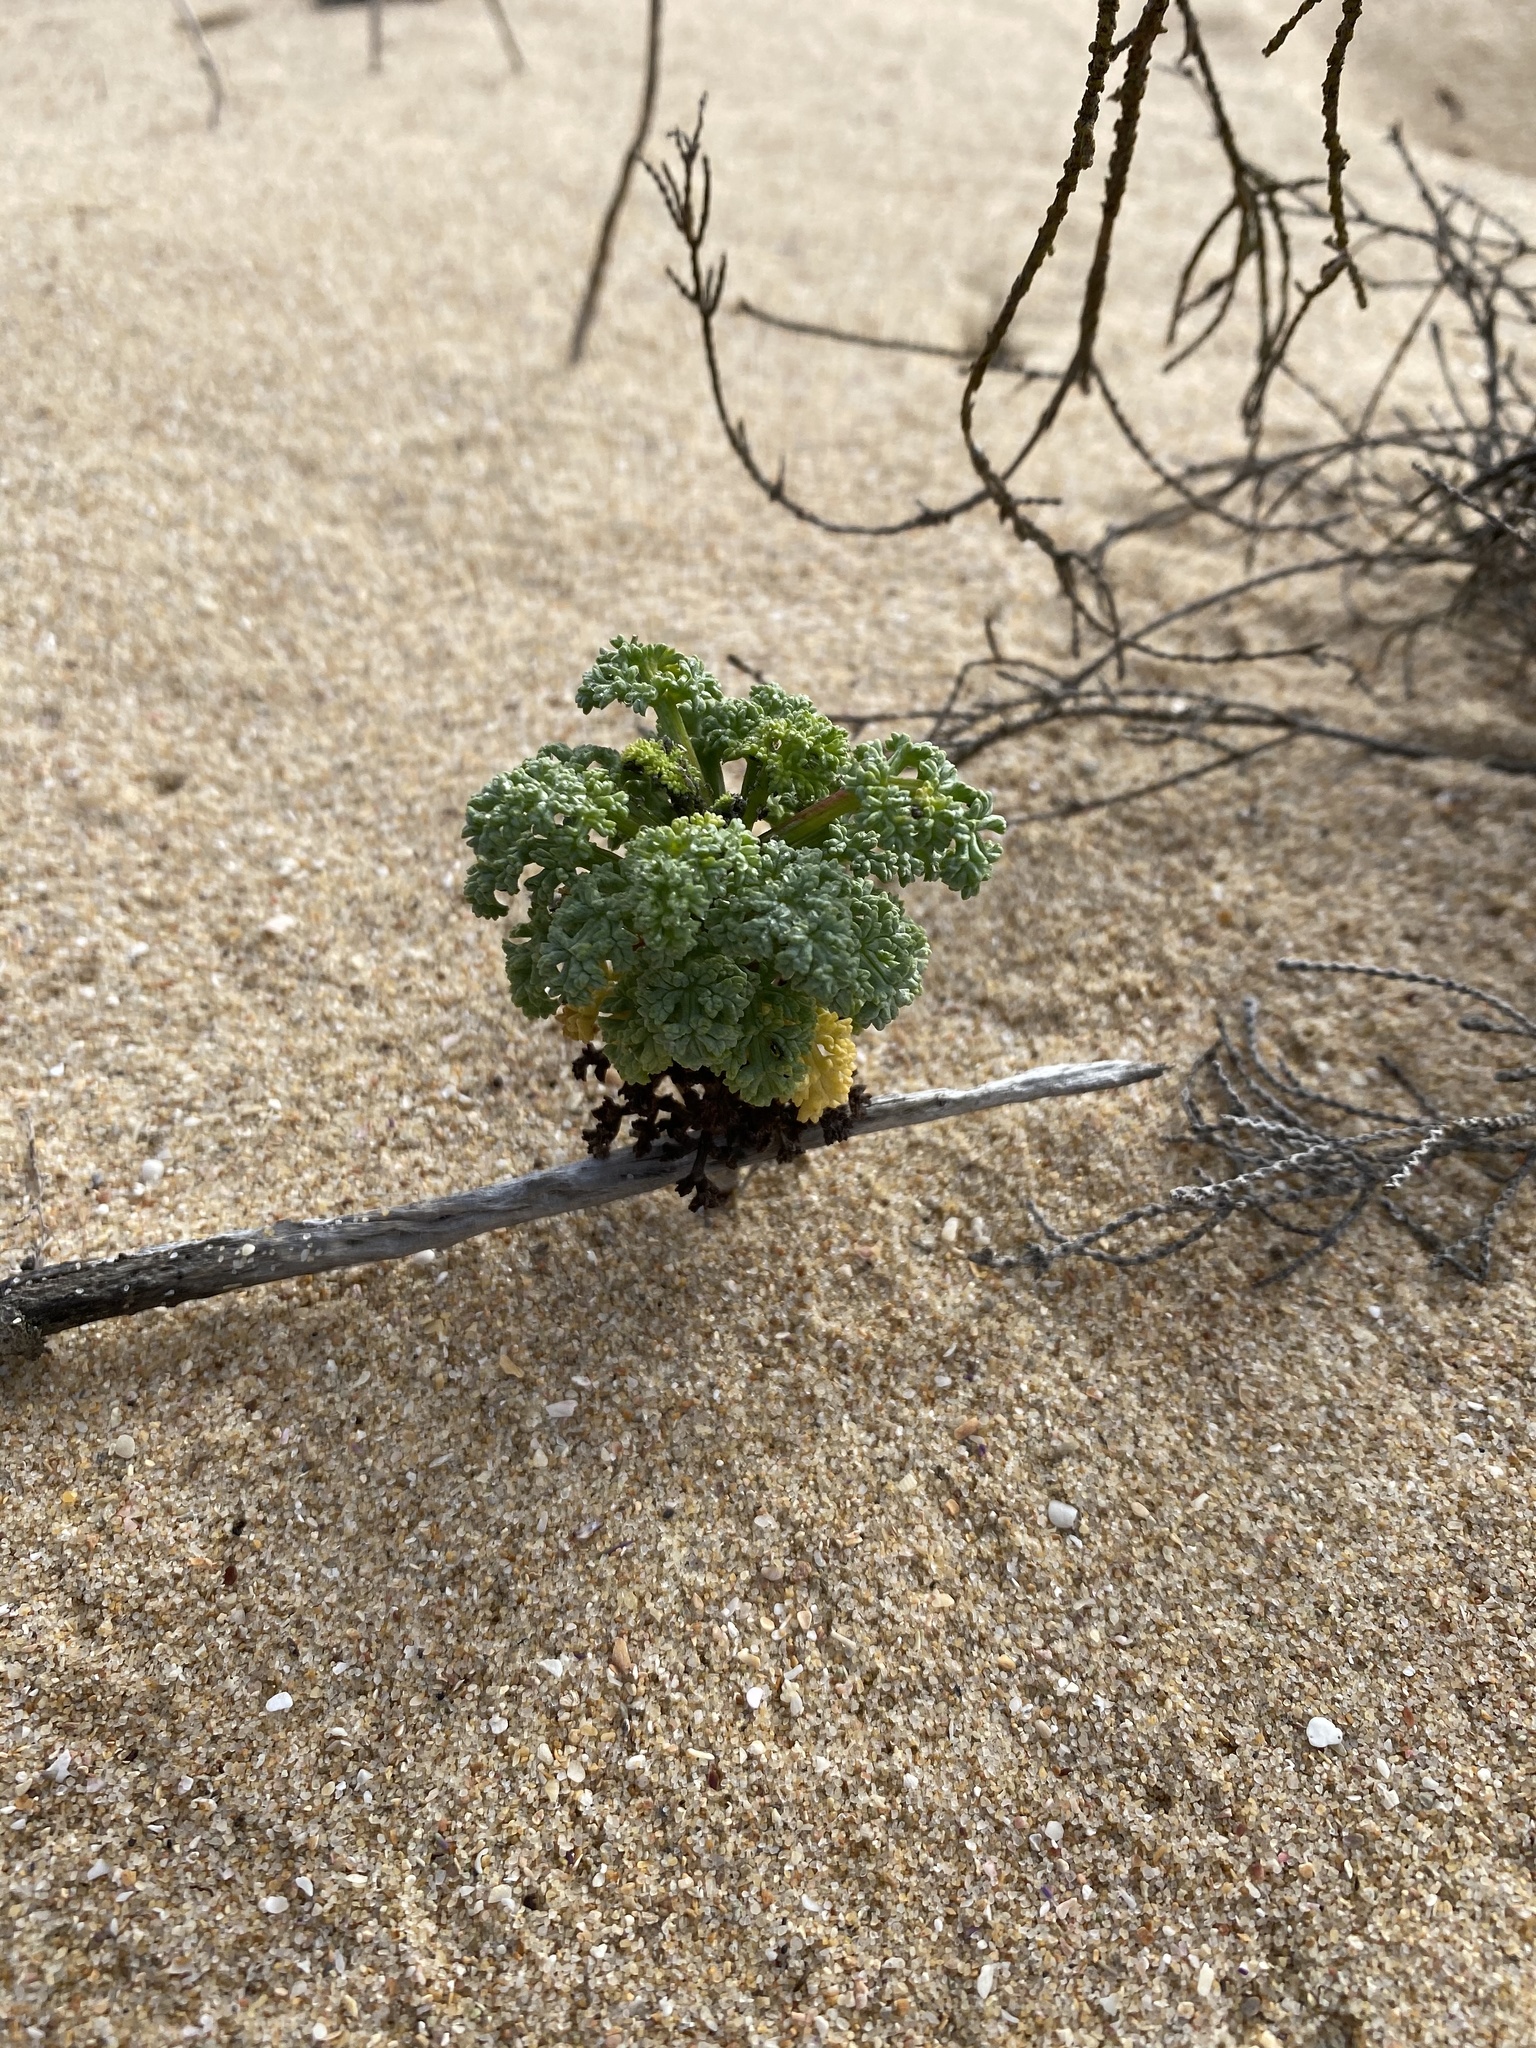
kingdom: Plantae
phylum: Tracheophyta
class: Magnoliopsida
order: Apiales
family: Apiaceae
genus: Dasispermum
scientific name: Dasispermum suffruticosum
